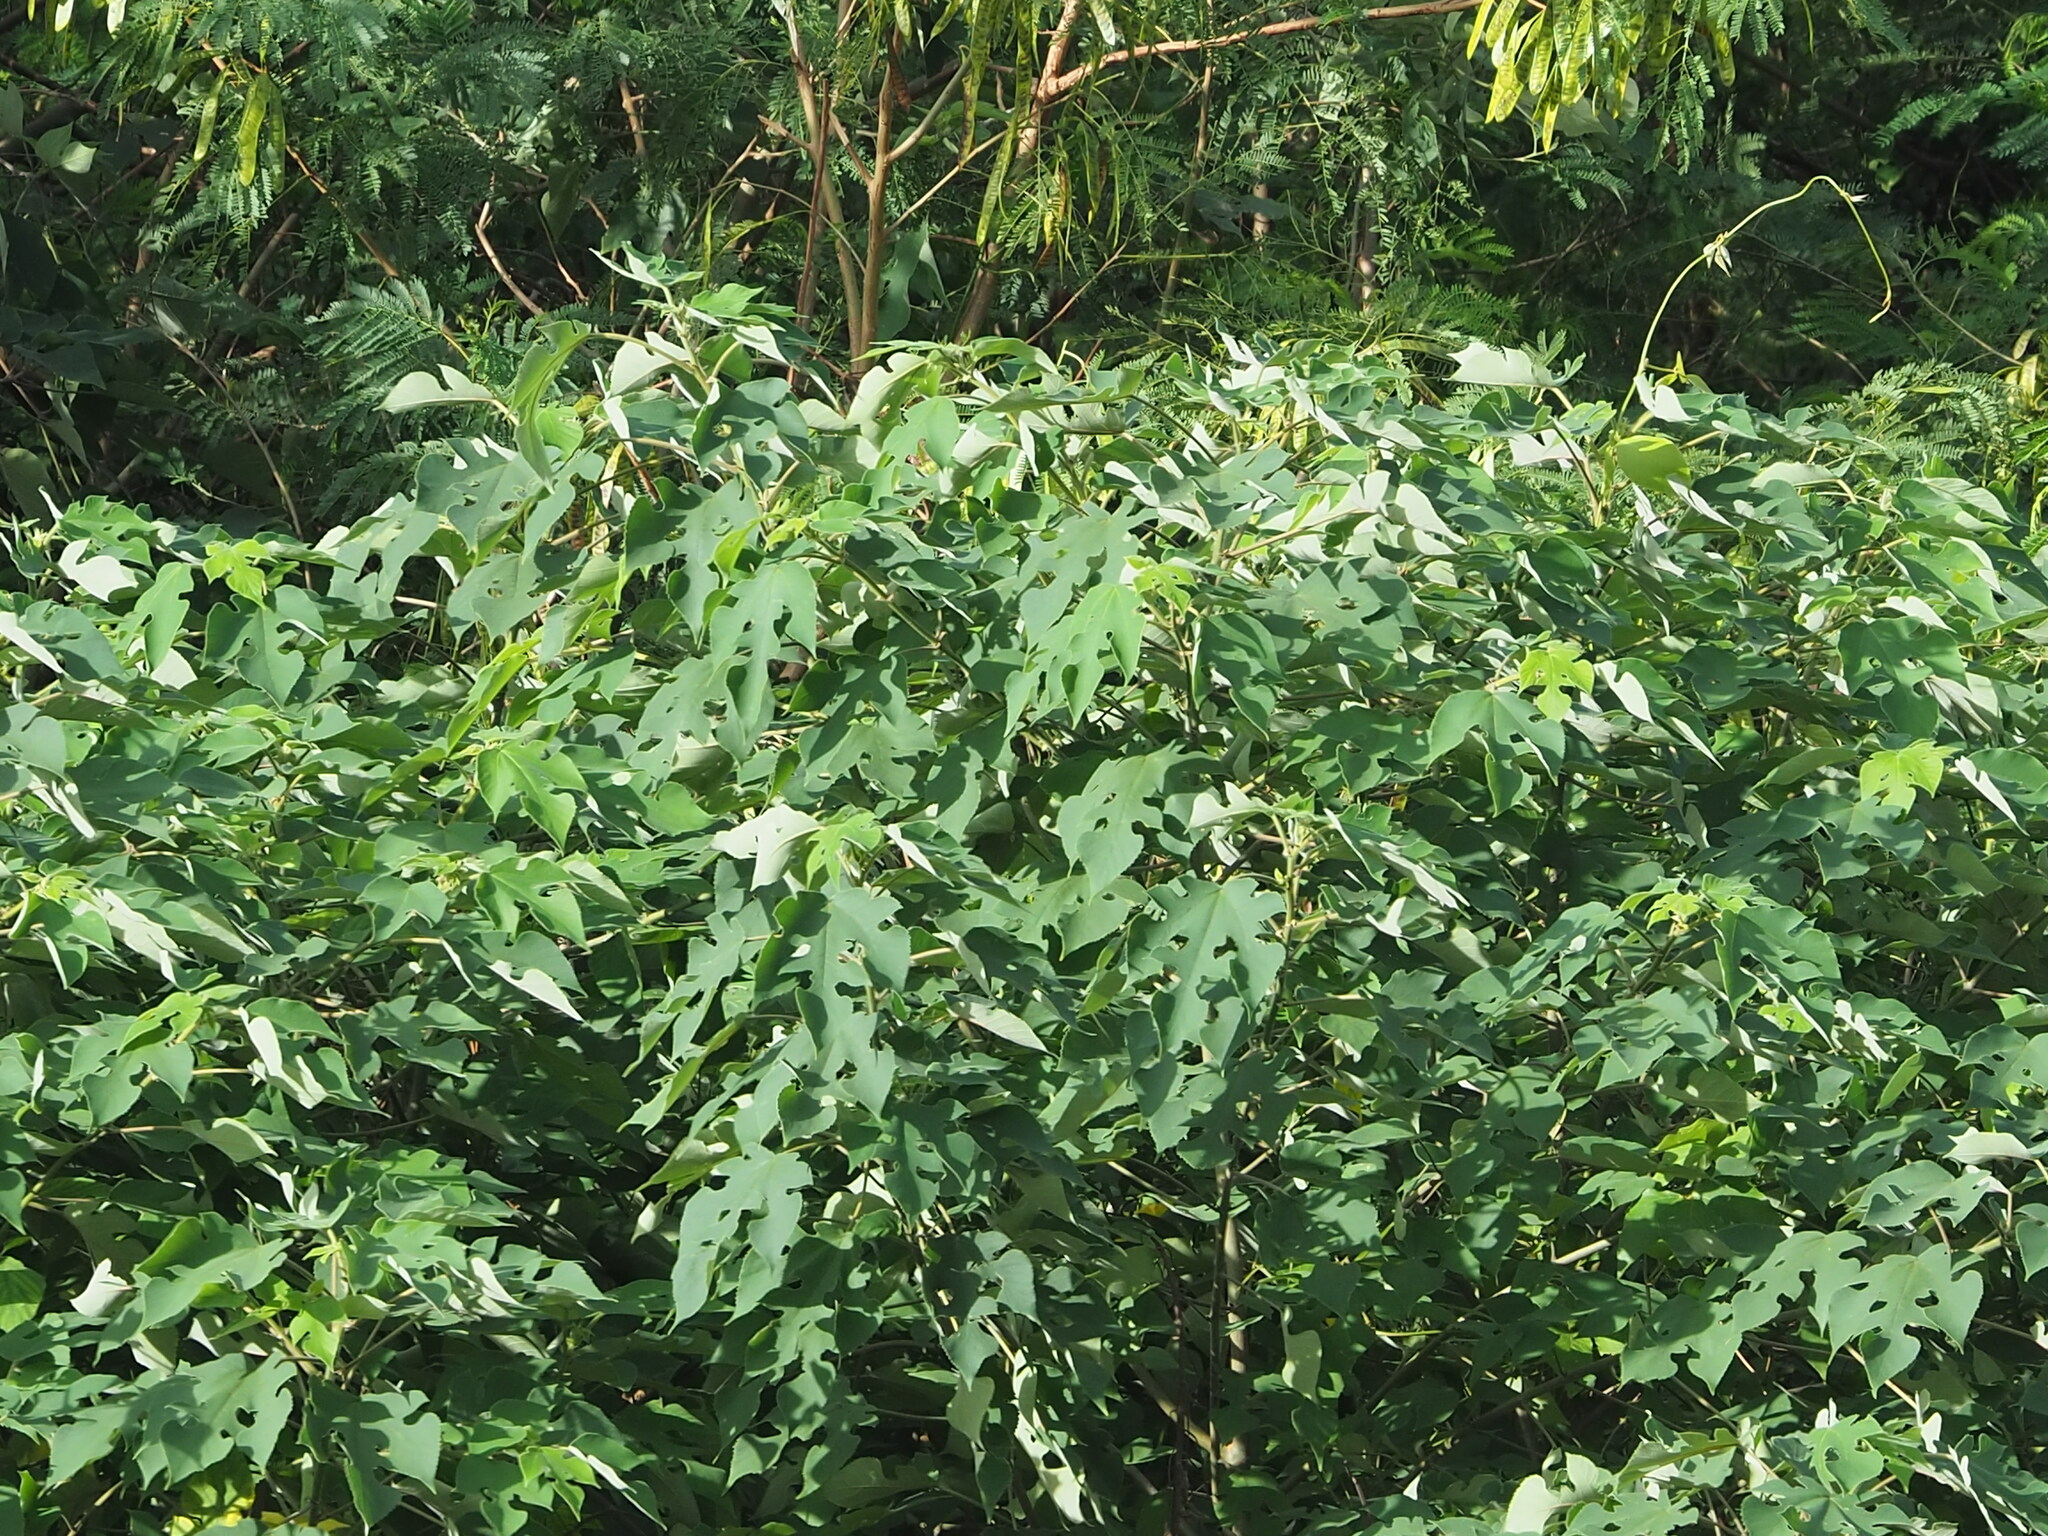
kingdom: Plantae
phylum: Tracheophyta
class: Magnoliopsida
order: Rosales
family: Moraceae
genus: Broussonetia
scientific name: Broussonetia papyrifera
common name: Paper mulberry
